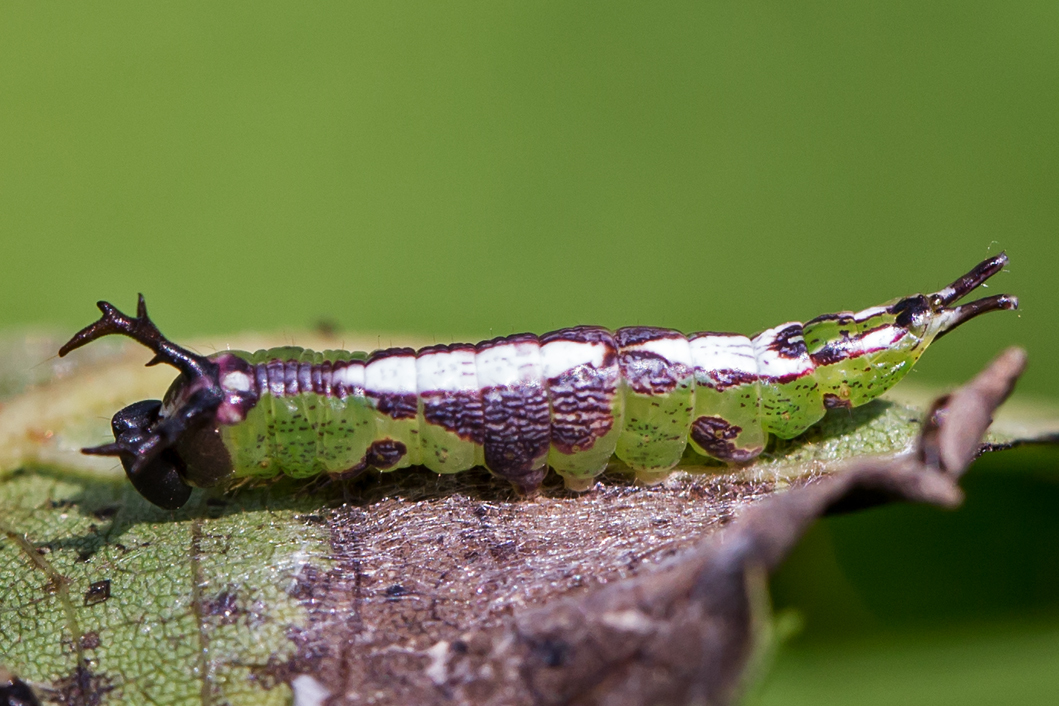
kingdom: Animalia
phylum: Arthropoda
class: Insecta
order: Lepidoptera
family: Notodontidae
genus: Disphragis
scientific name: Disphragis Cecrita biundata
